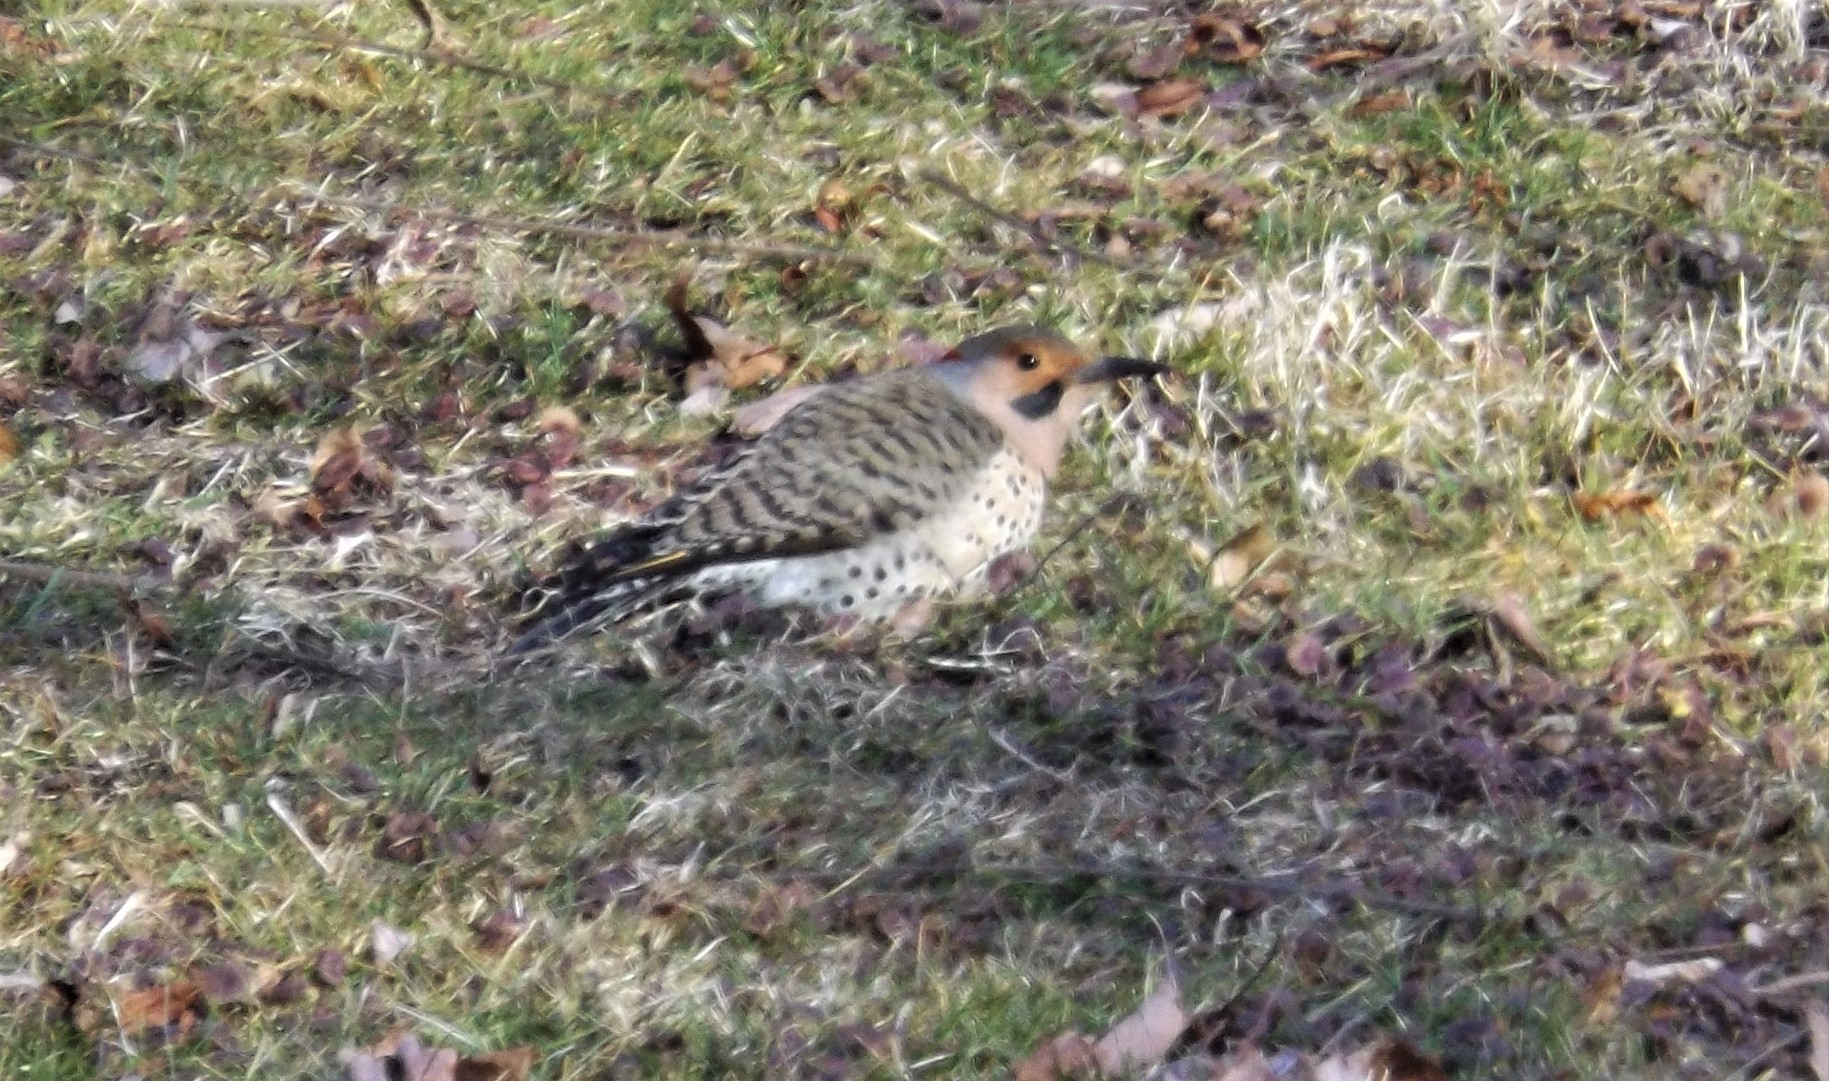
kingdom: Animalia
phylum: Chordata
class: Aves
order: Piciformes
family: Picidae
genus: Colaptes
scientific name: Colaptes auratus
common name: Northern flicker
